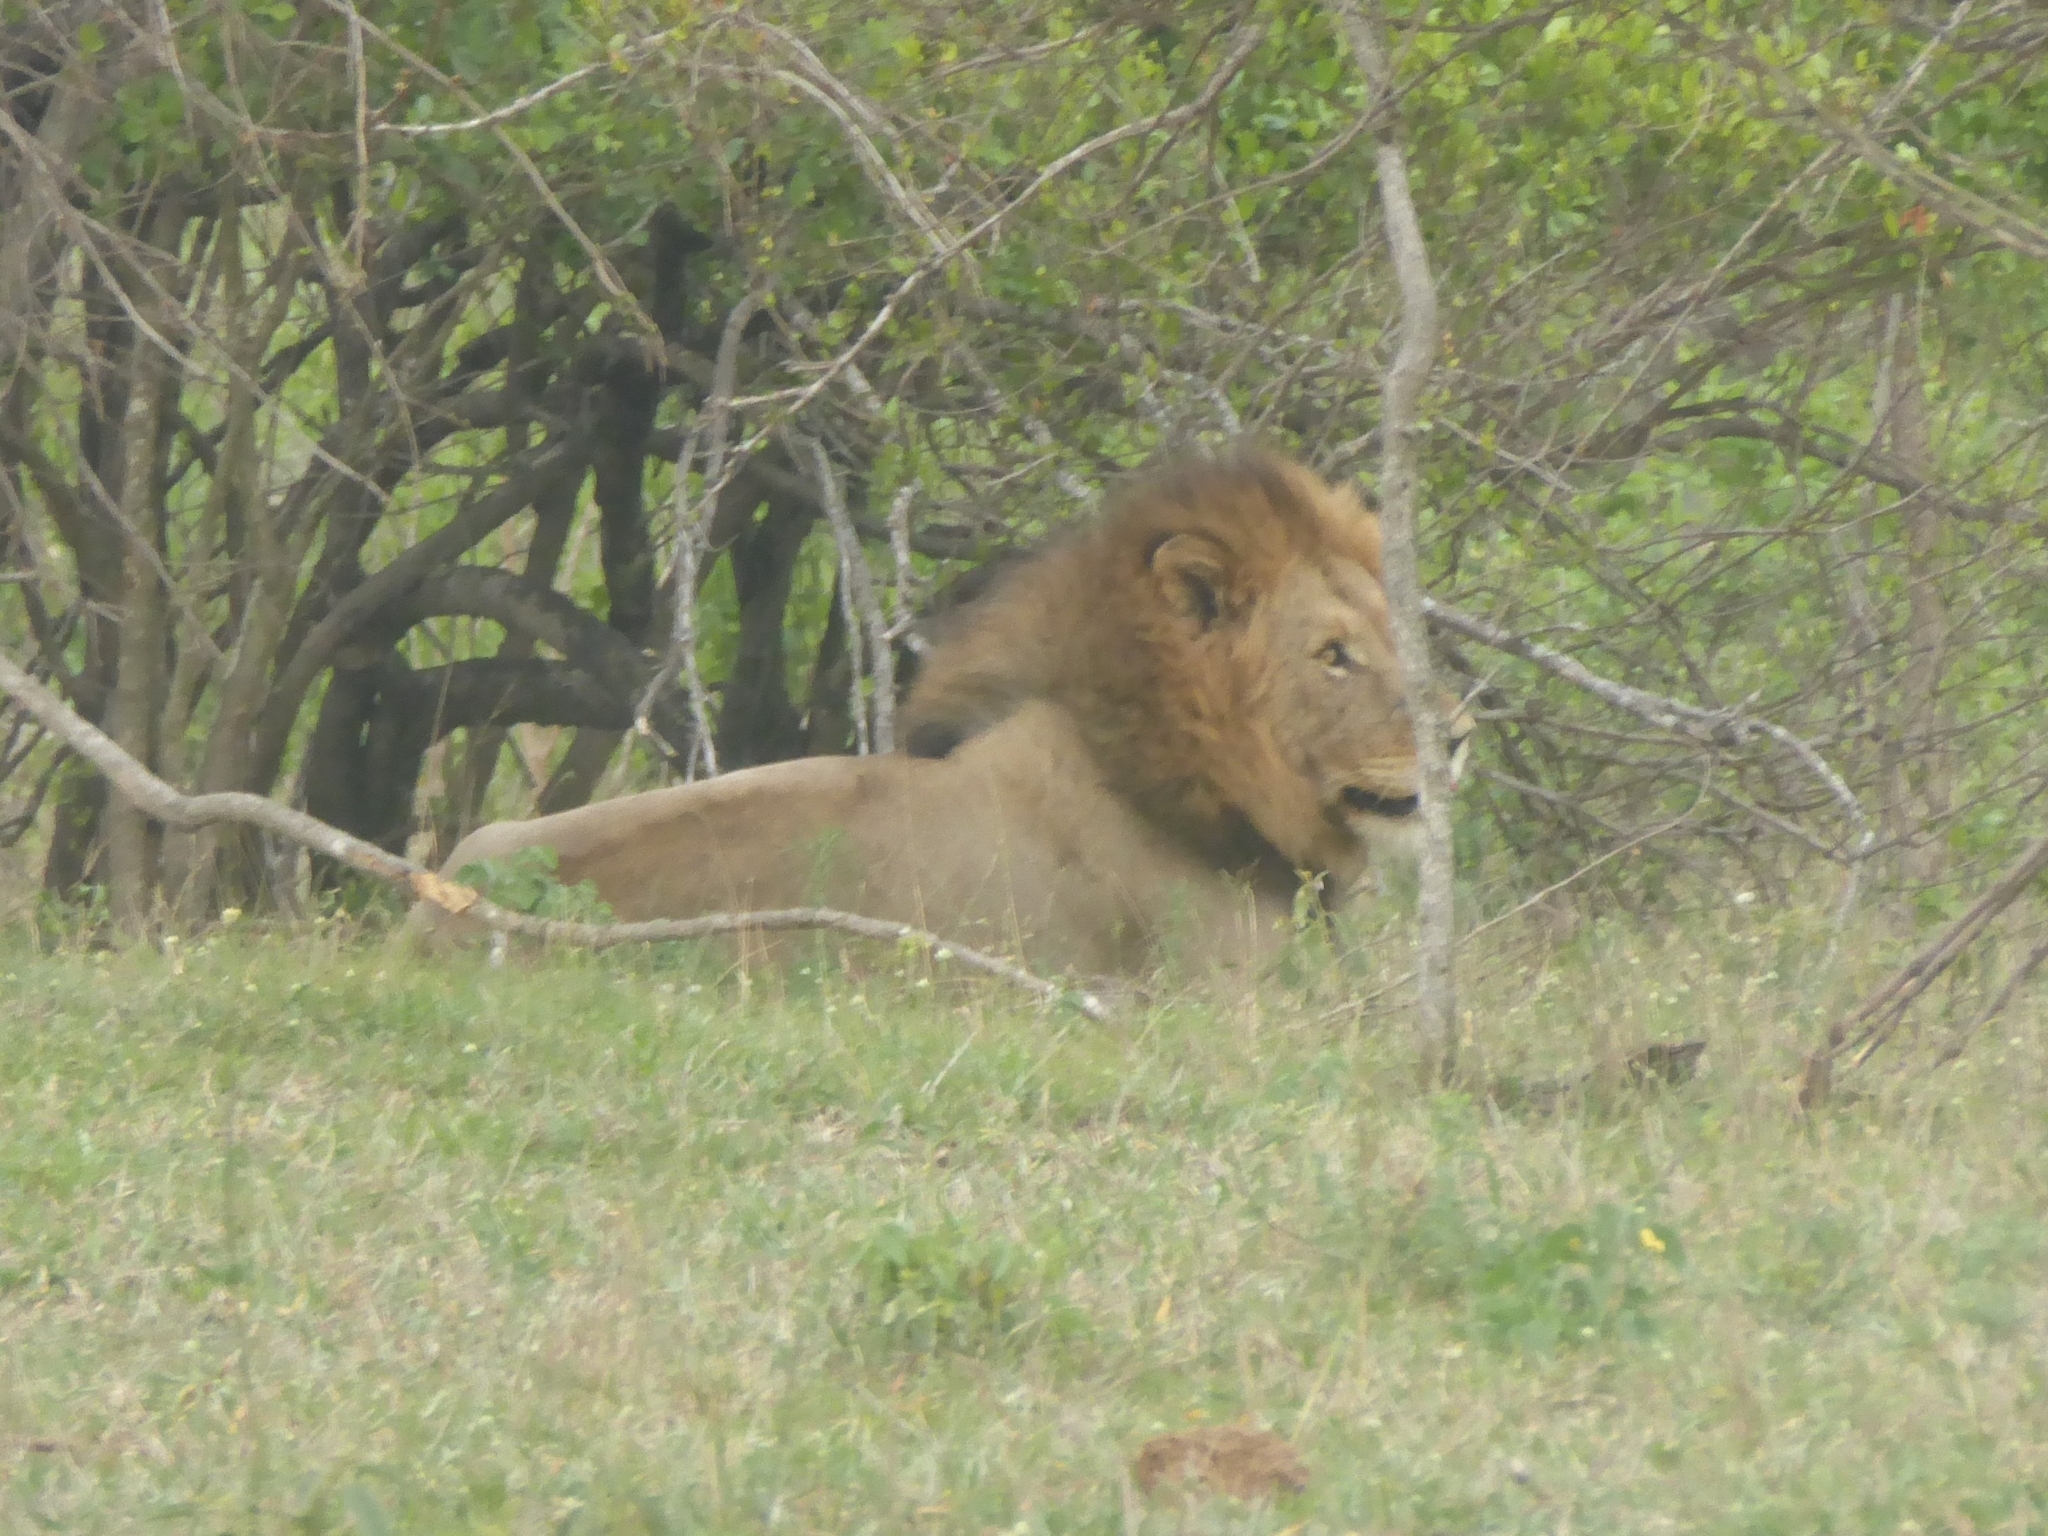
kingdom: Animalia
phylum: Chordata
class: Mammalia
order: Carnivora
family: Felidae
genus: Panthera
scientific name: Panthera leo
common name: Lion
